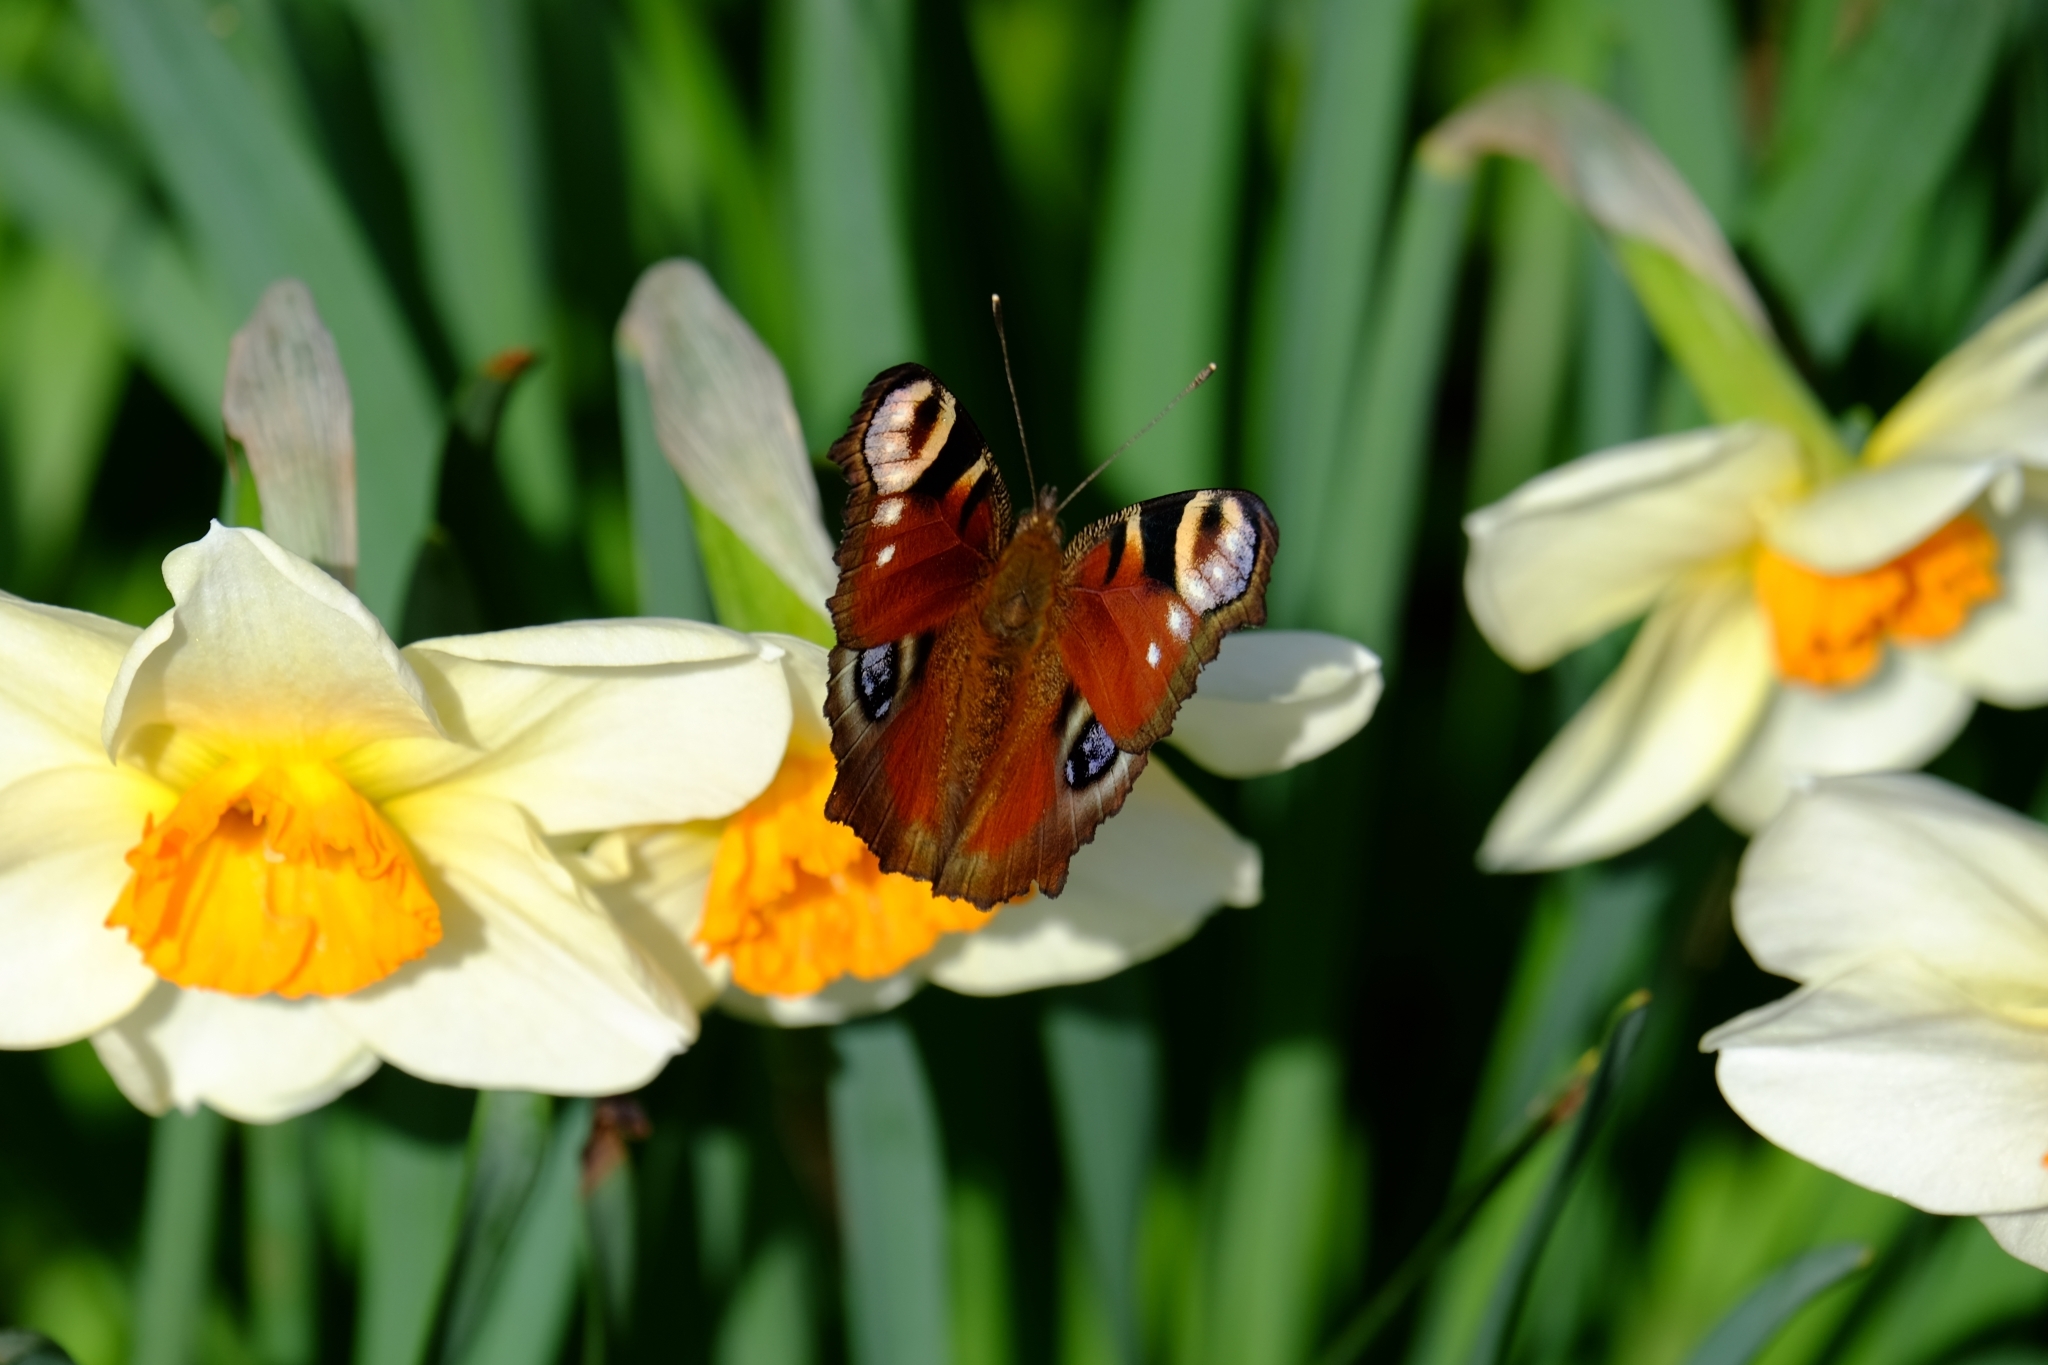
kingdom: Animalia
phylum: Arthropoda
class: Insecta
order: Lepidoptera
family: Nymphalidae
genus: Aglais
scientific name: Aglais io
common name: Peacock
